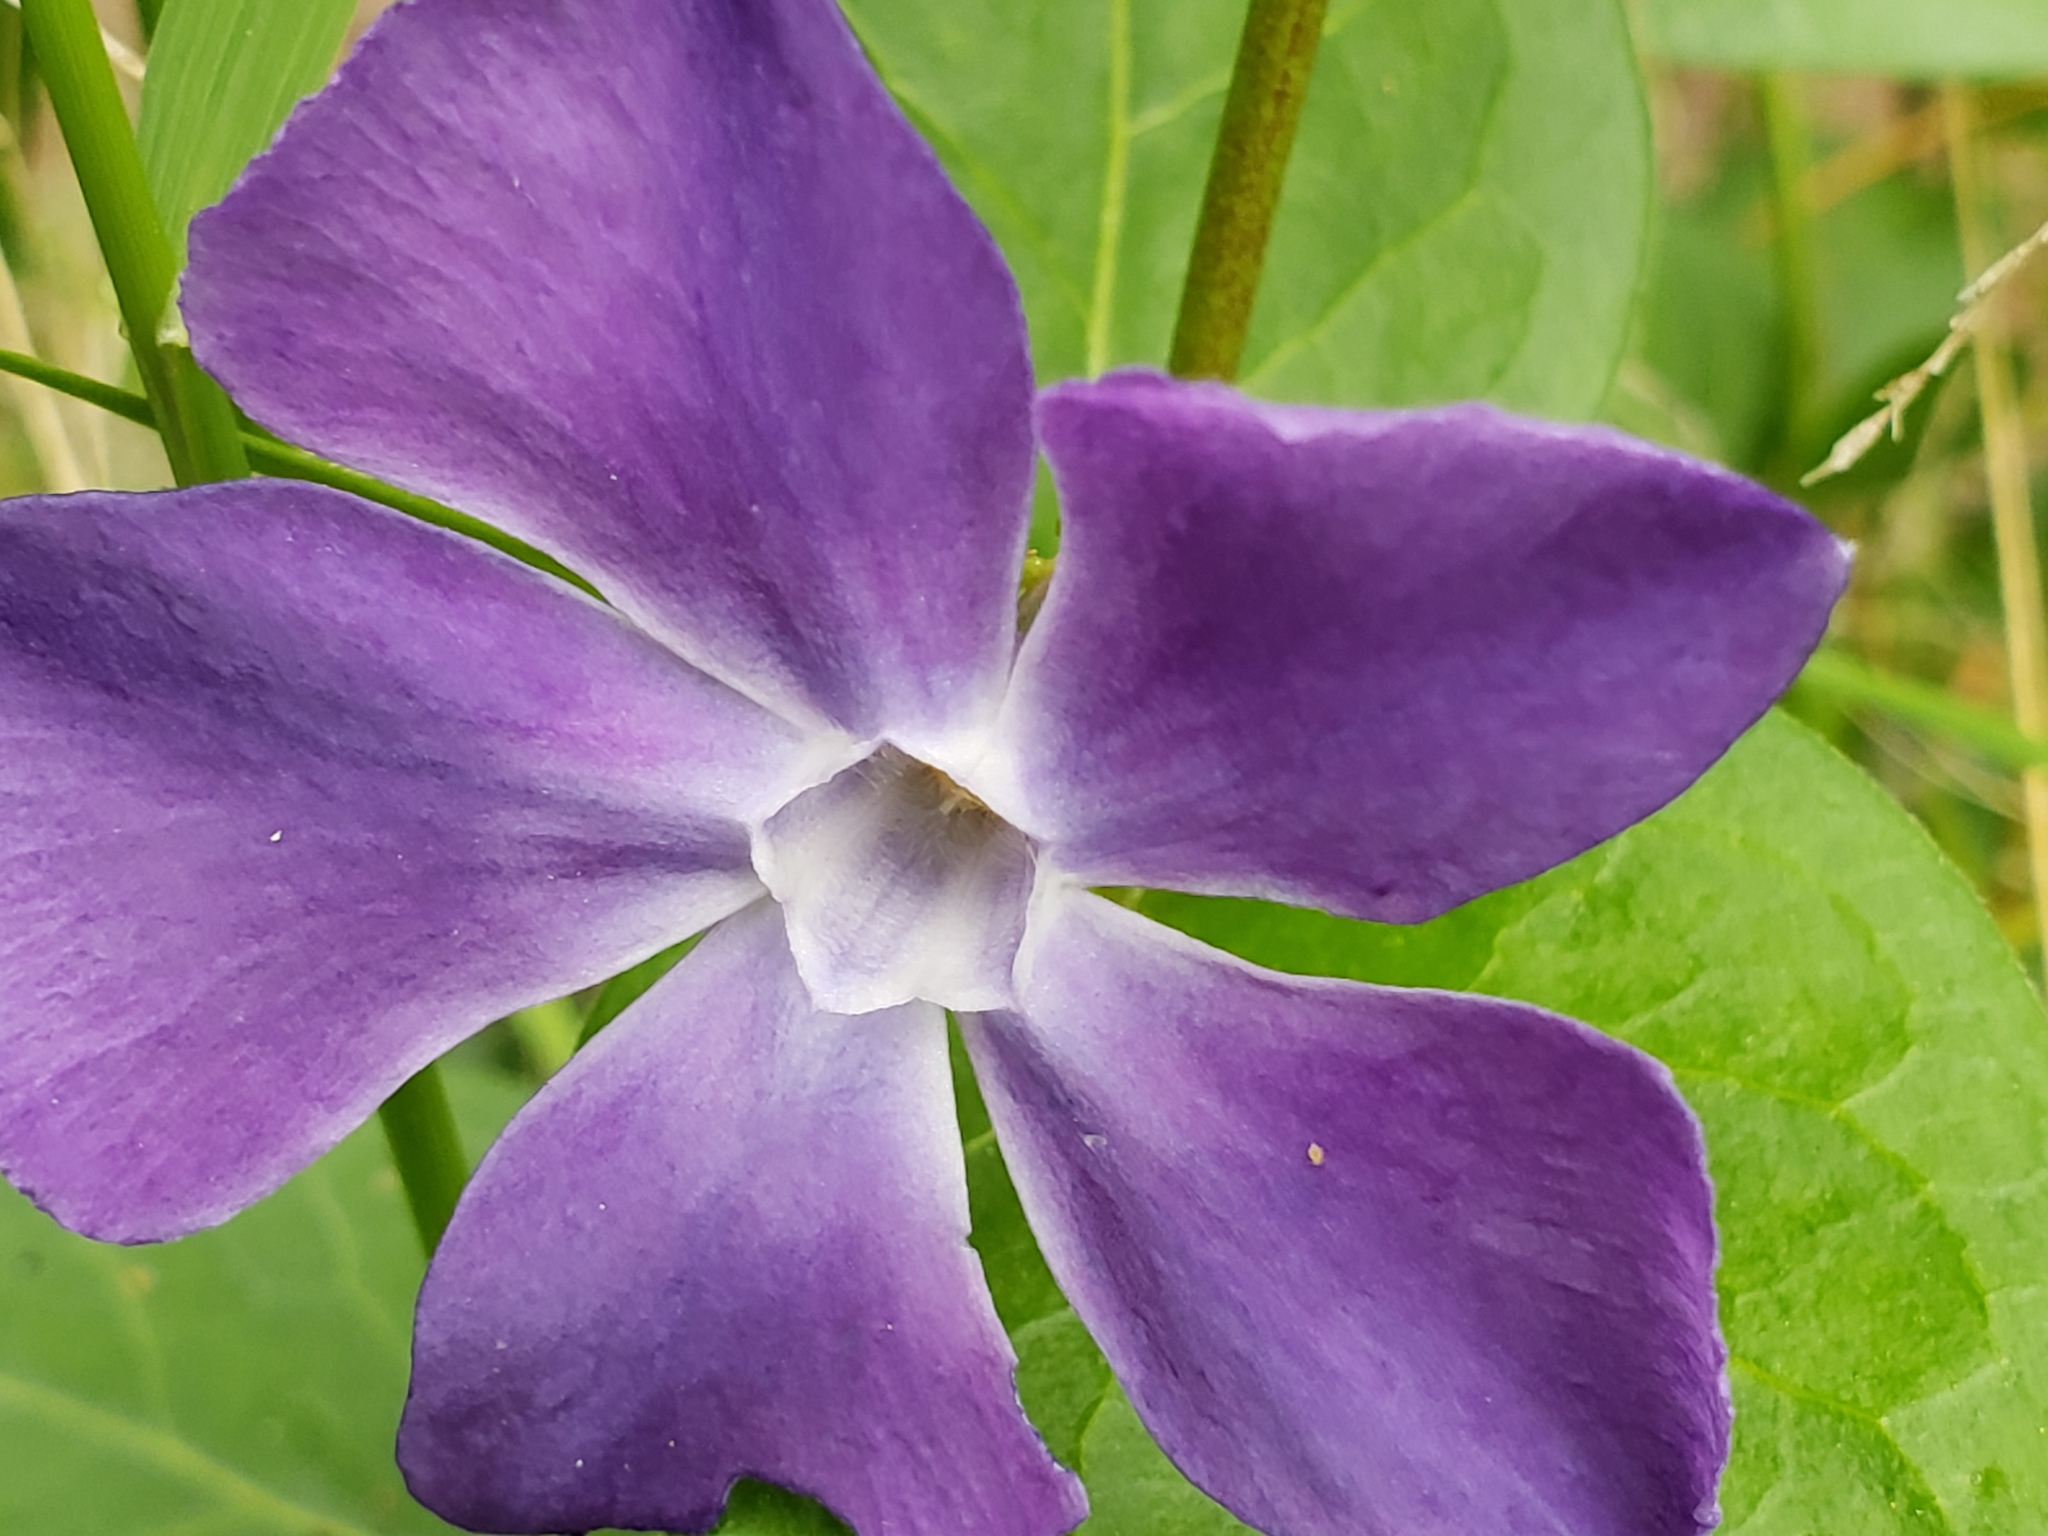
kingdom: Plantae
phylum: Tracheophyta
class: Magnoliopsida
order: Gentianales
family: Apocynaceae
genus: Vinca
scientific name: Vinca major
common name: Greater periwinkle
